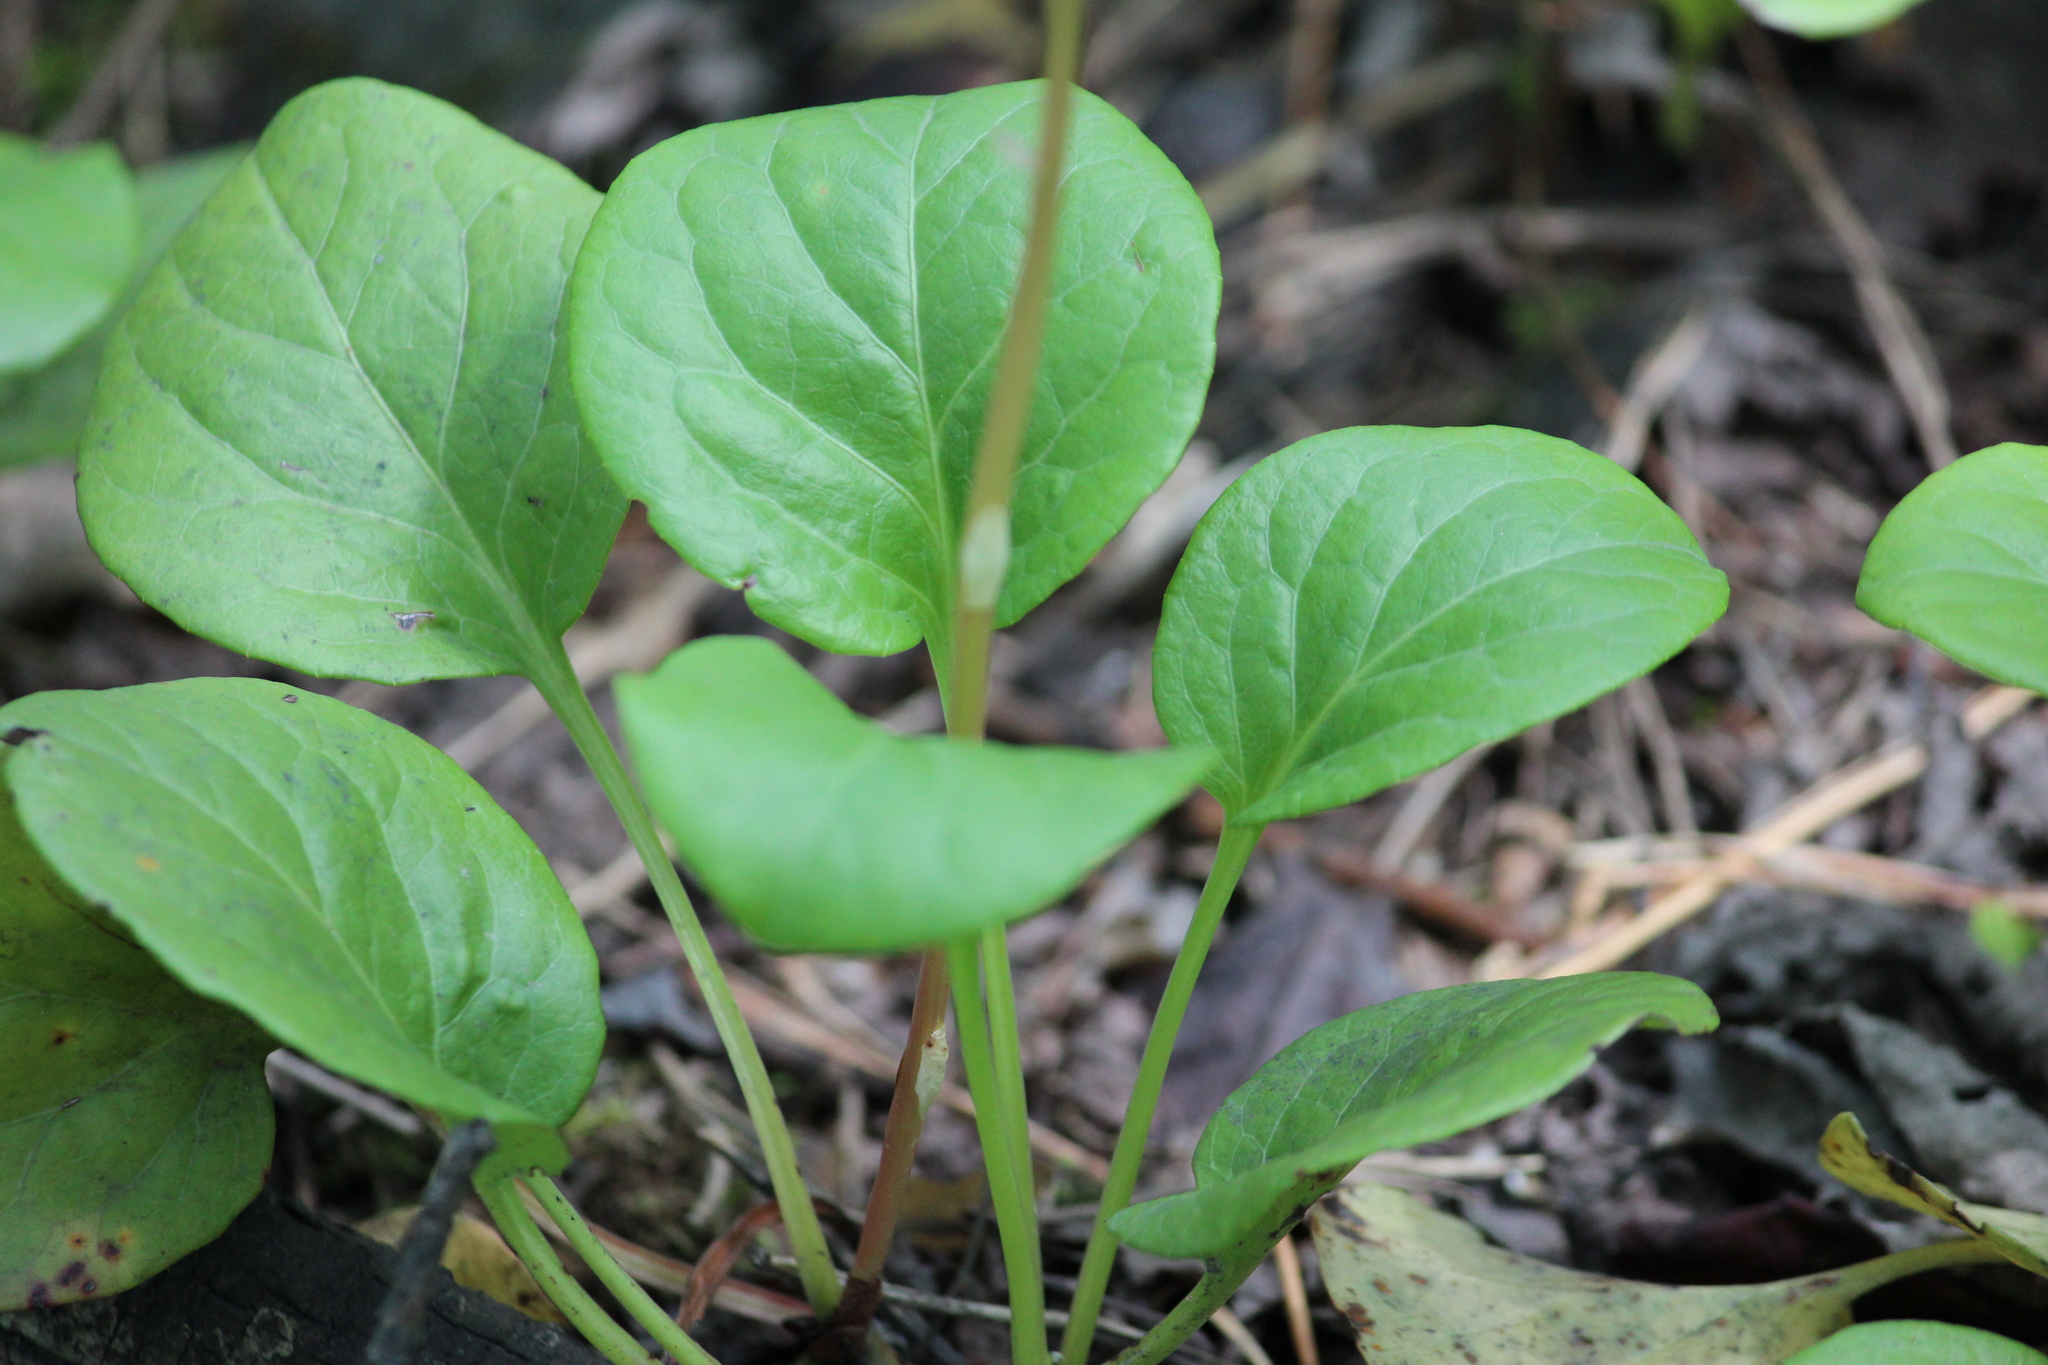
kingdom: Plantae
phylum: Tracheophyta
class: Magnoliopsida
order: Ericales
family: Ericaceae
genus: Pyrola
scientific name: Pyrola rotundifolia
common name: Round-leaved wintergreen
